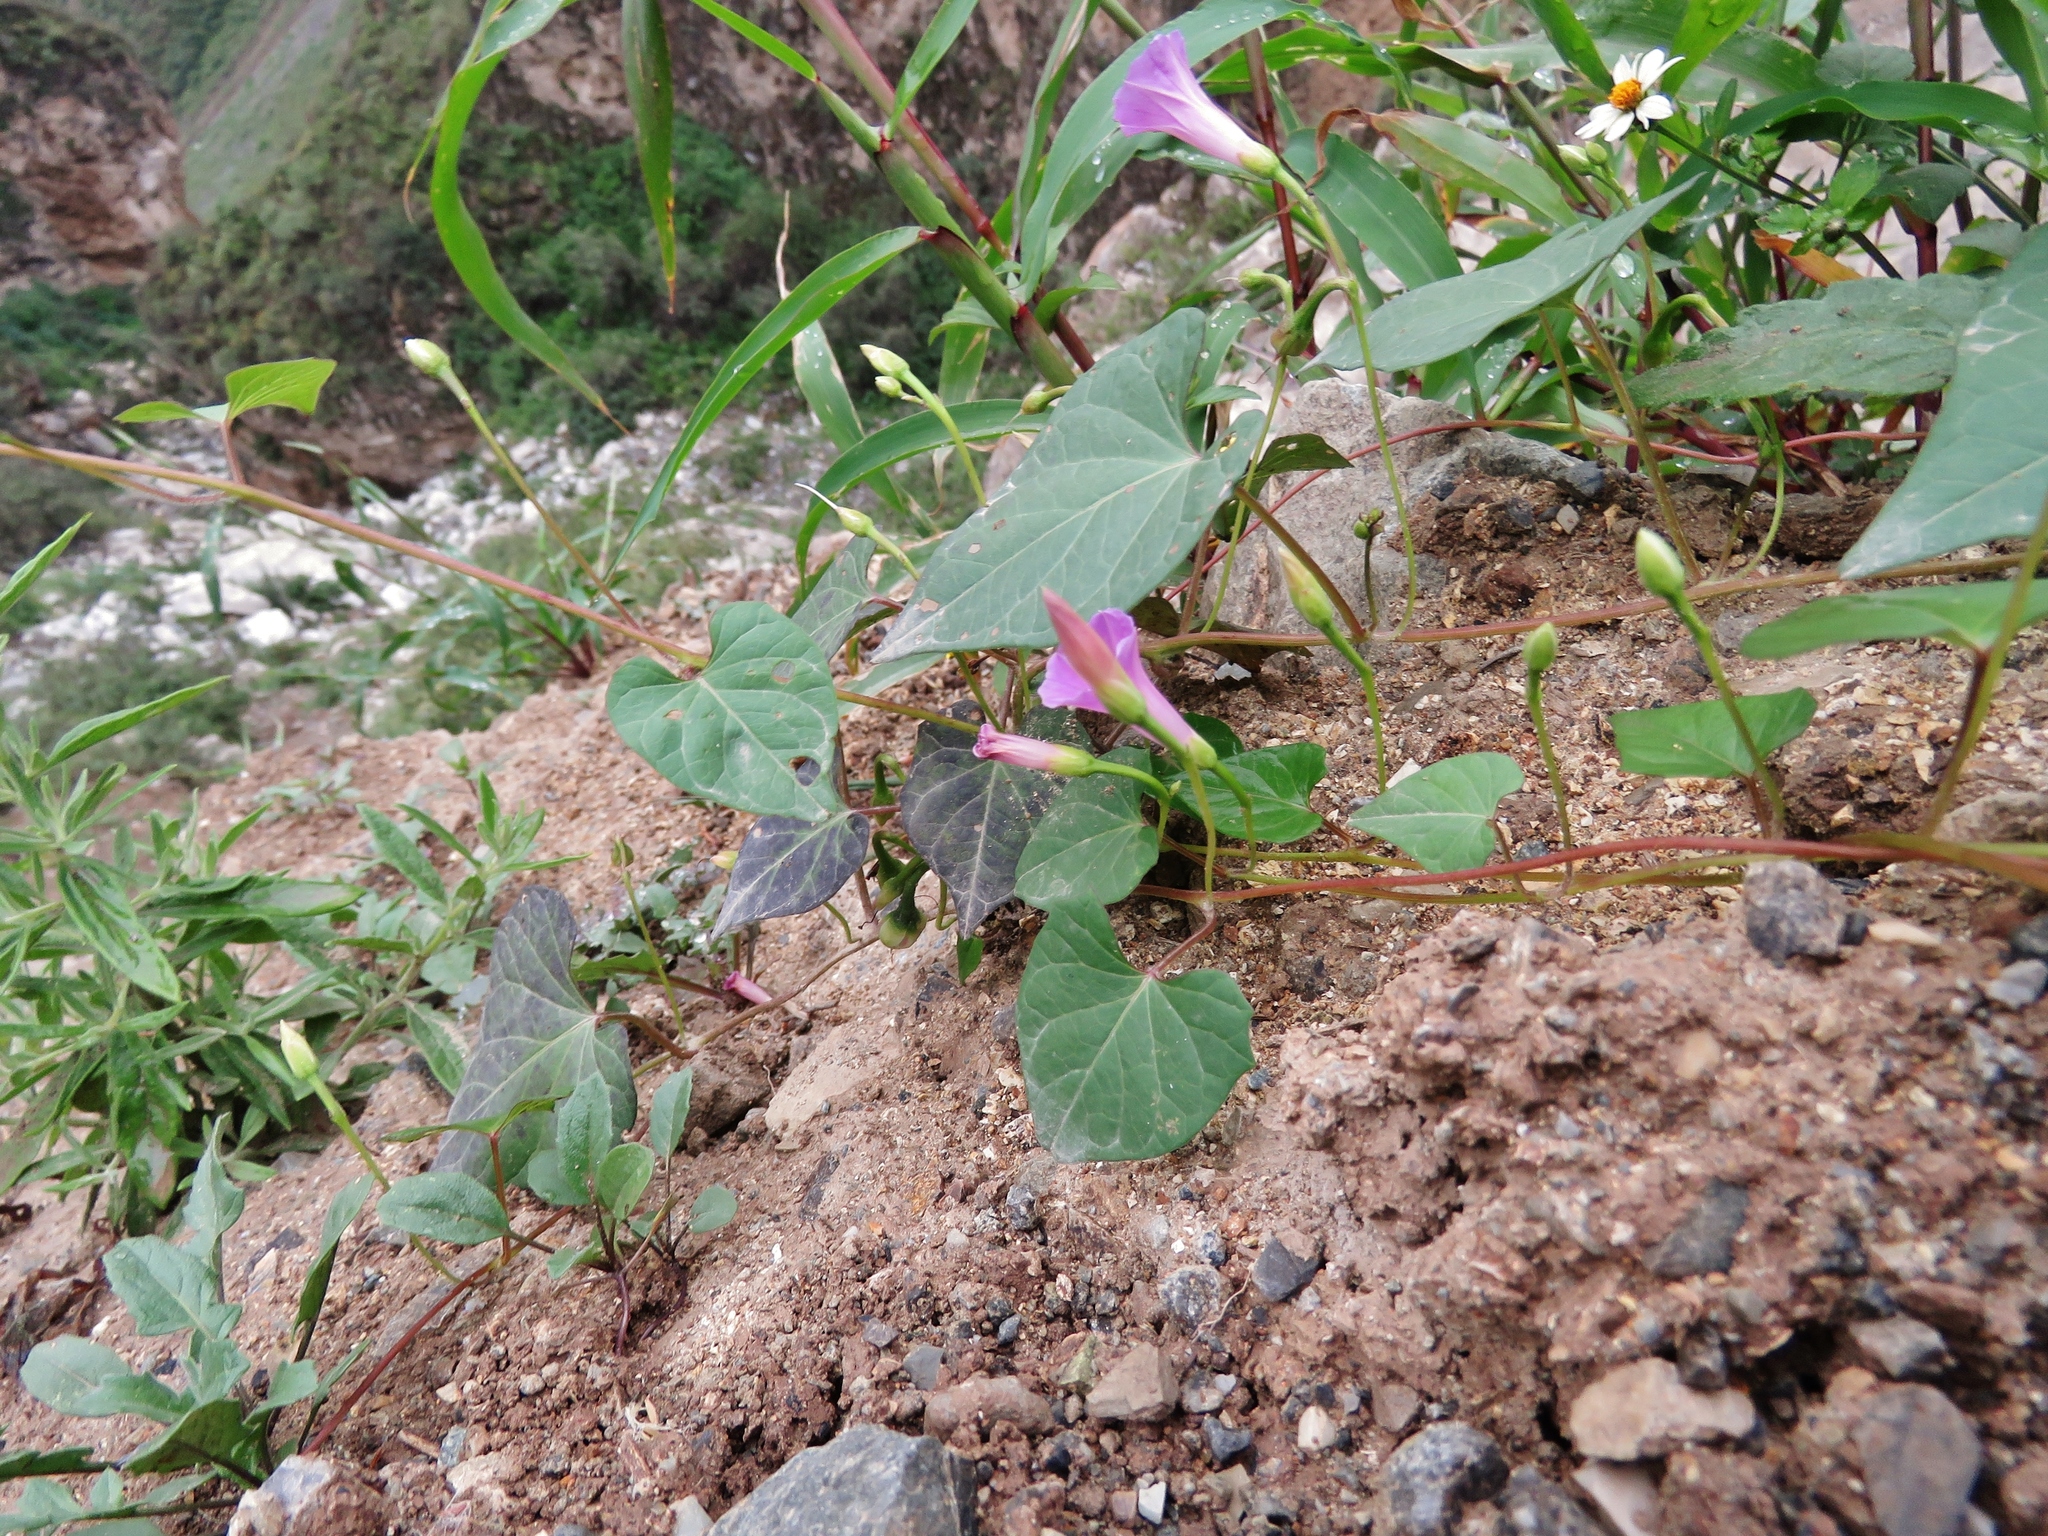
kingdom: Plantae
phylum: Tracheophyta
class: Magnoliopsida
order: Solanales
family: Convolvulaceae
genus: Ipomoea
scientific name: Ipomoea dumetorum
